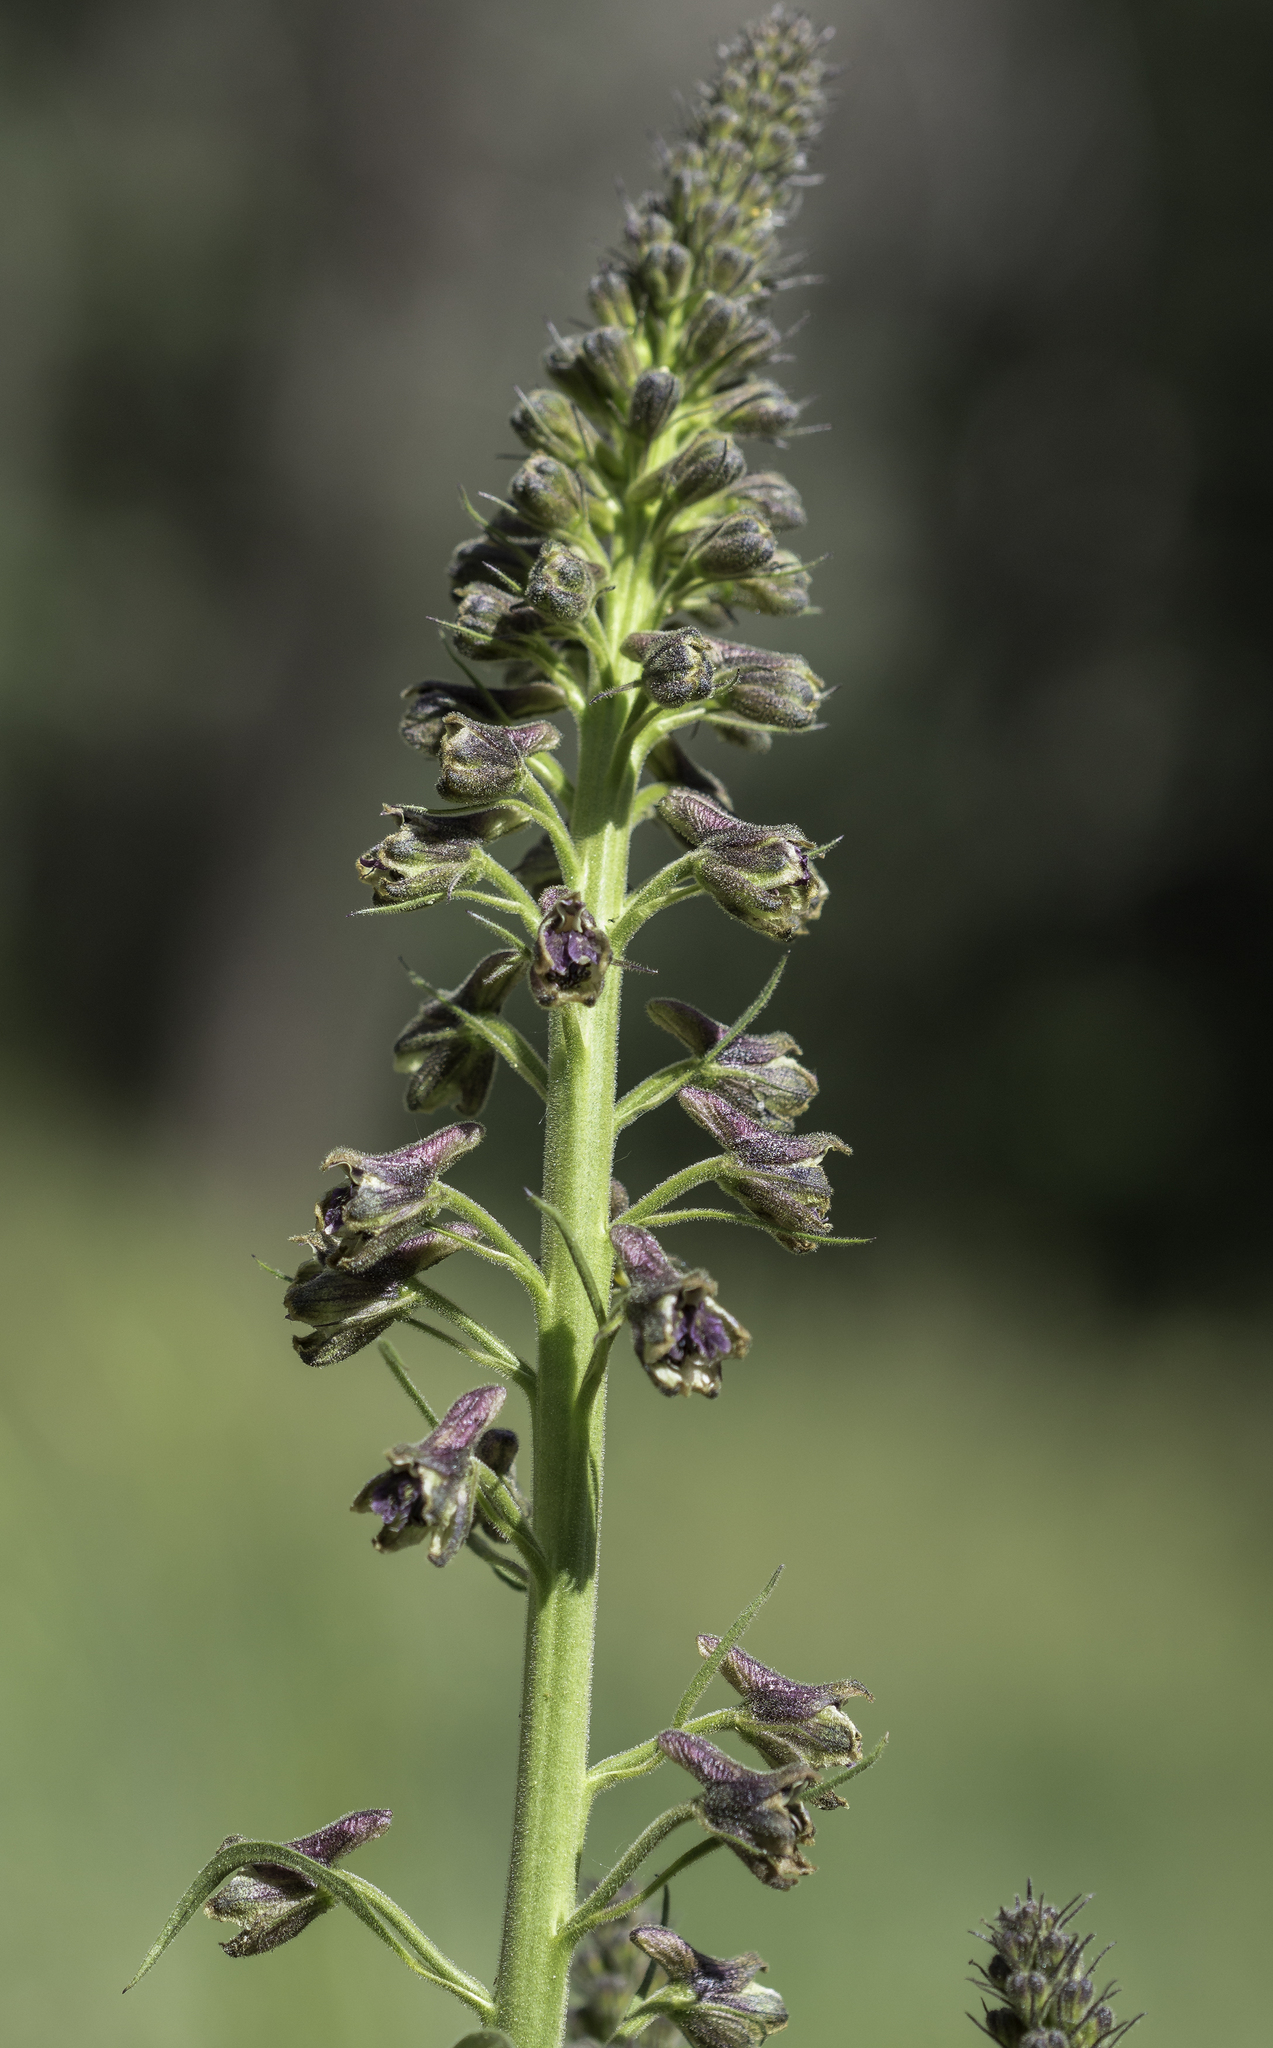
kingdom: Plantae
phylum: Tracheophyta
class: Magnoliopsida
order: Ranunculales
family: Ranunculaceae
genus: Delphinium
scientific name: Delphinium sapellonis
